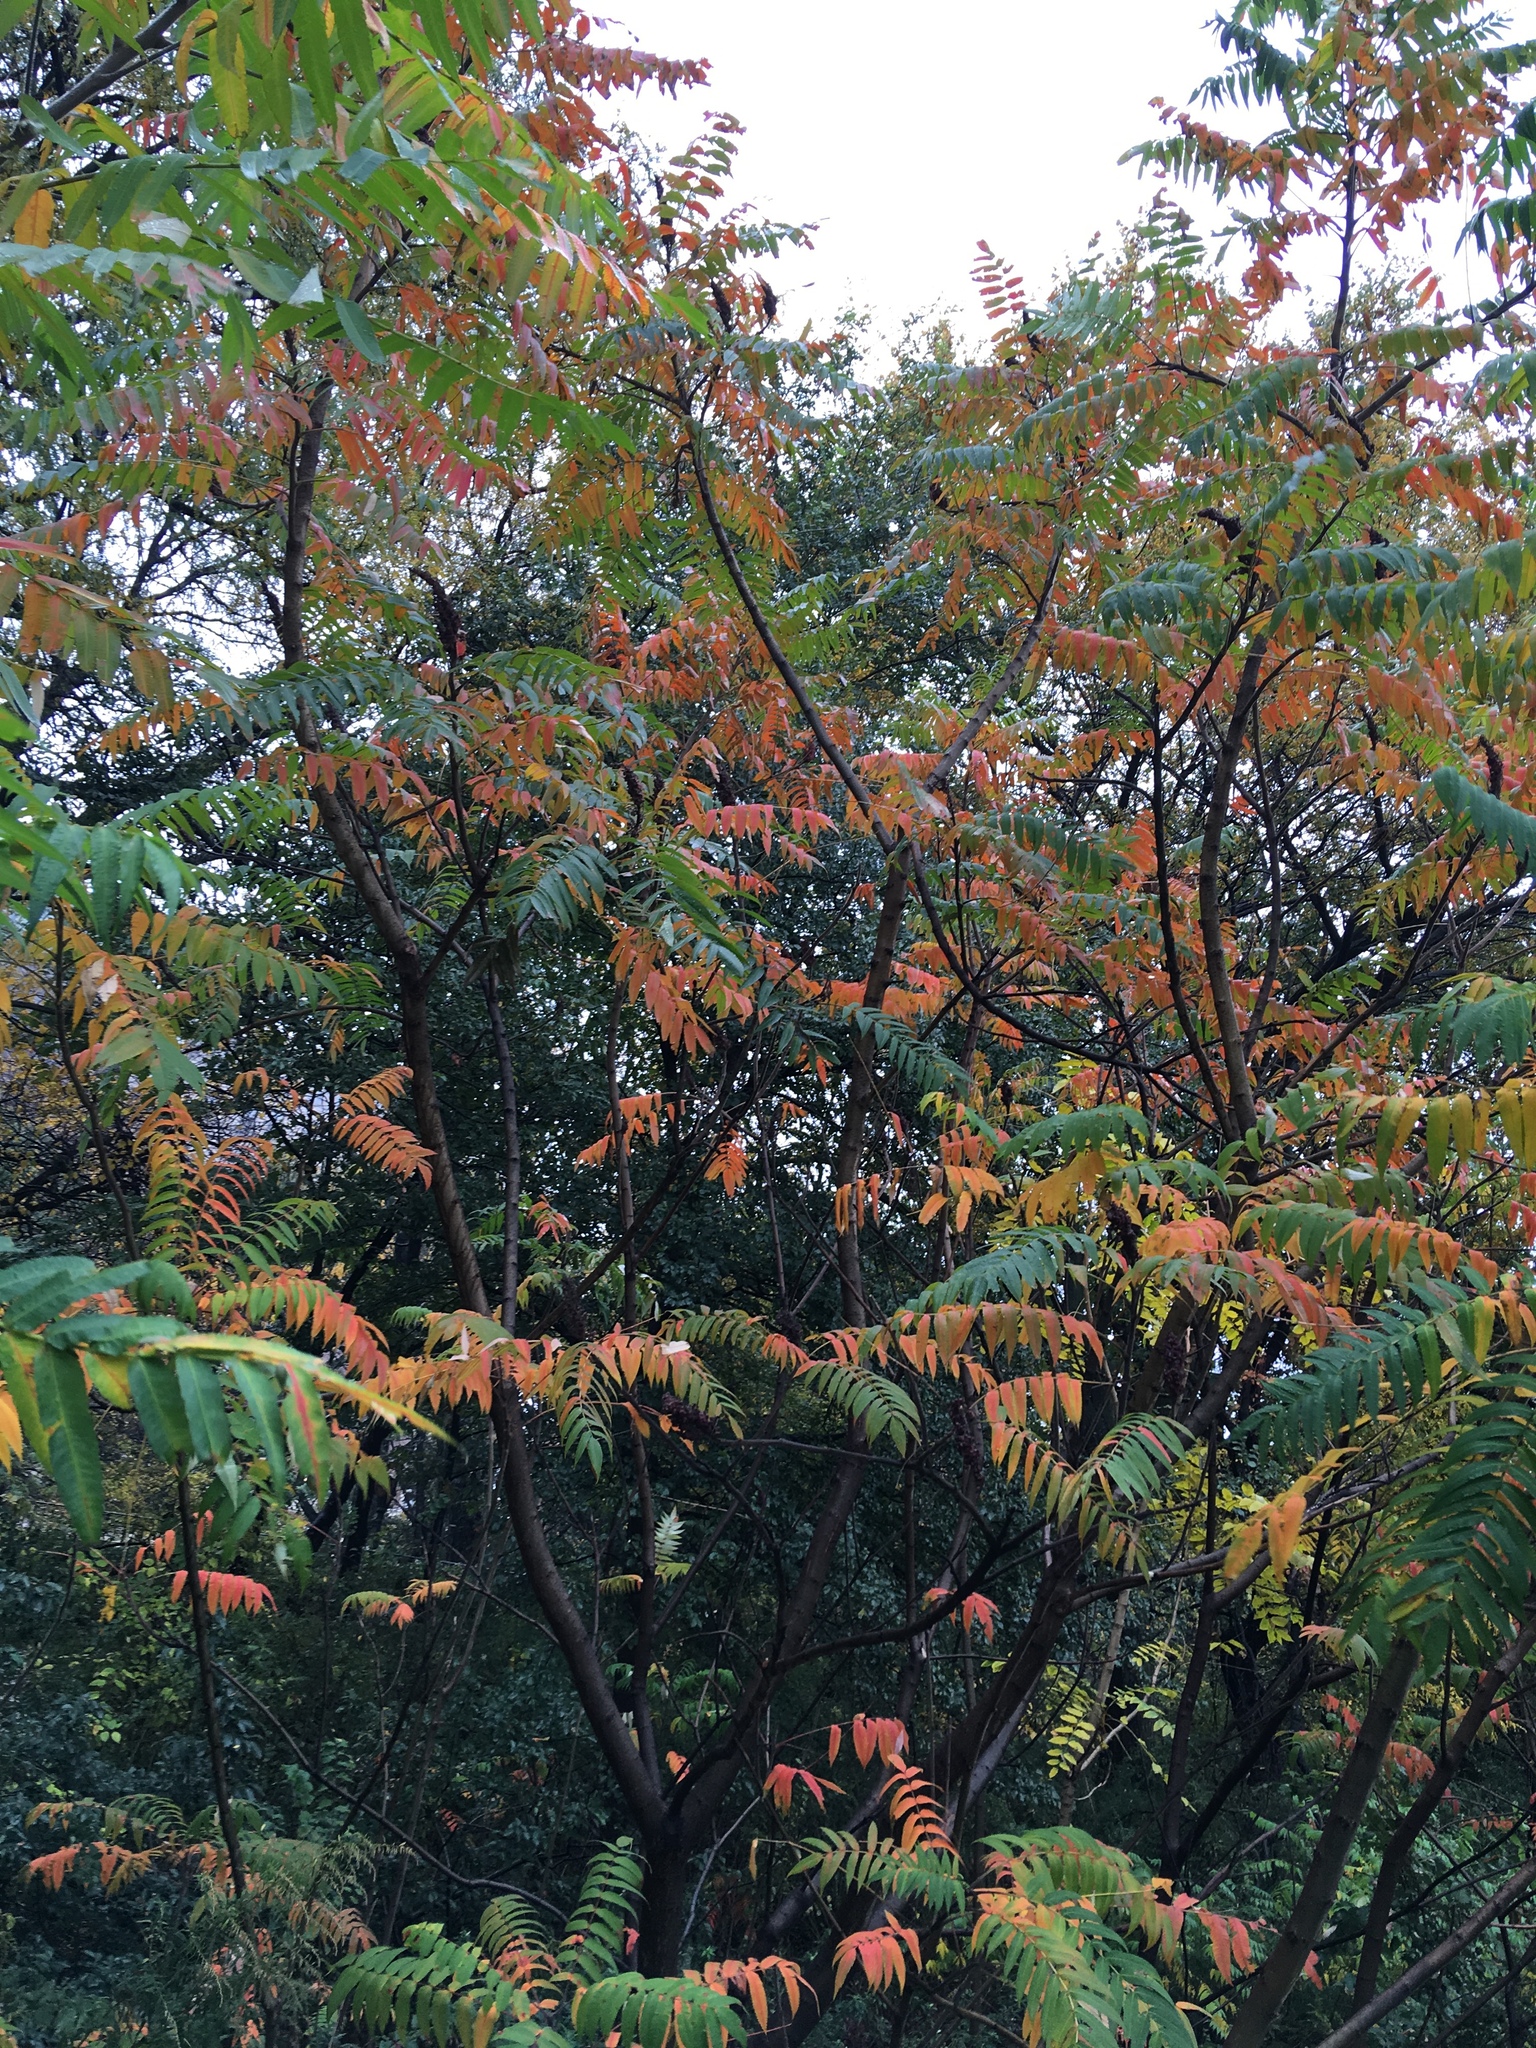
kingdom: Plantae
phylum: Tracheophyta
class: Magnoliopsida
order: Sapindales
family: Anacardiaceae
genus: Rhus
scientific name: Rhus typhina
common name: Staghorn sumac
